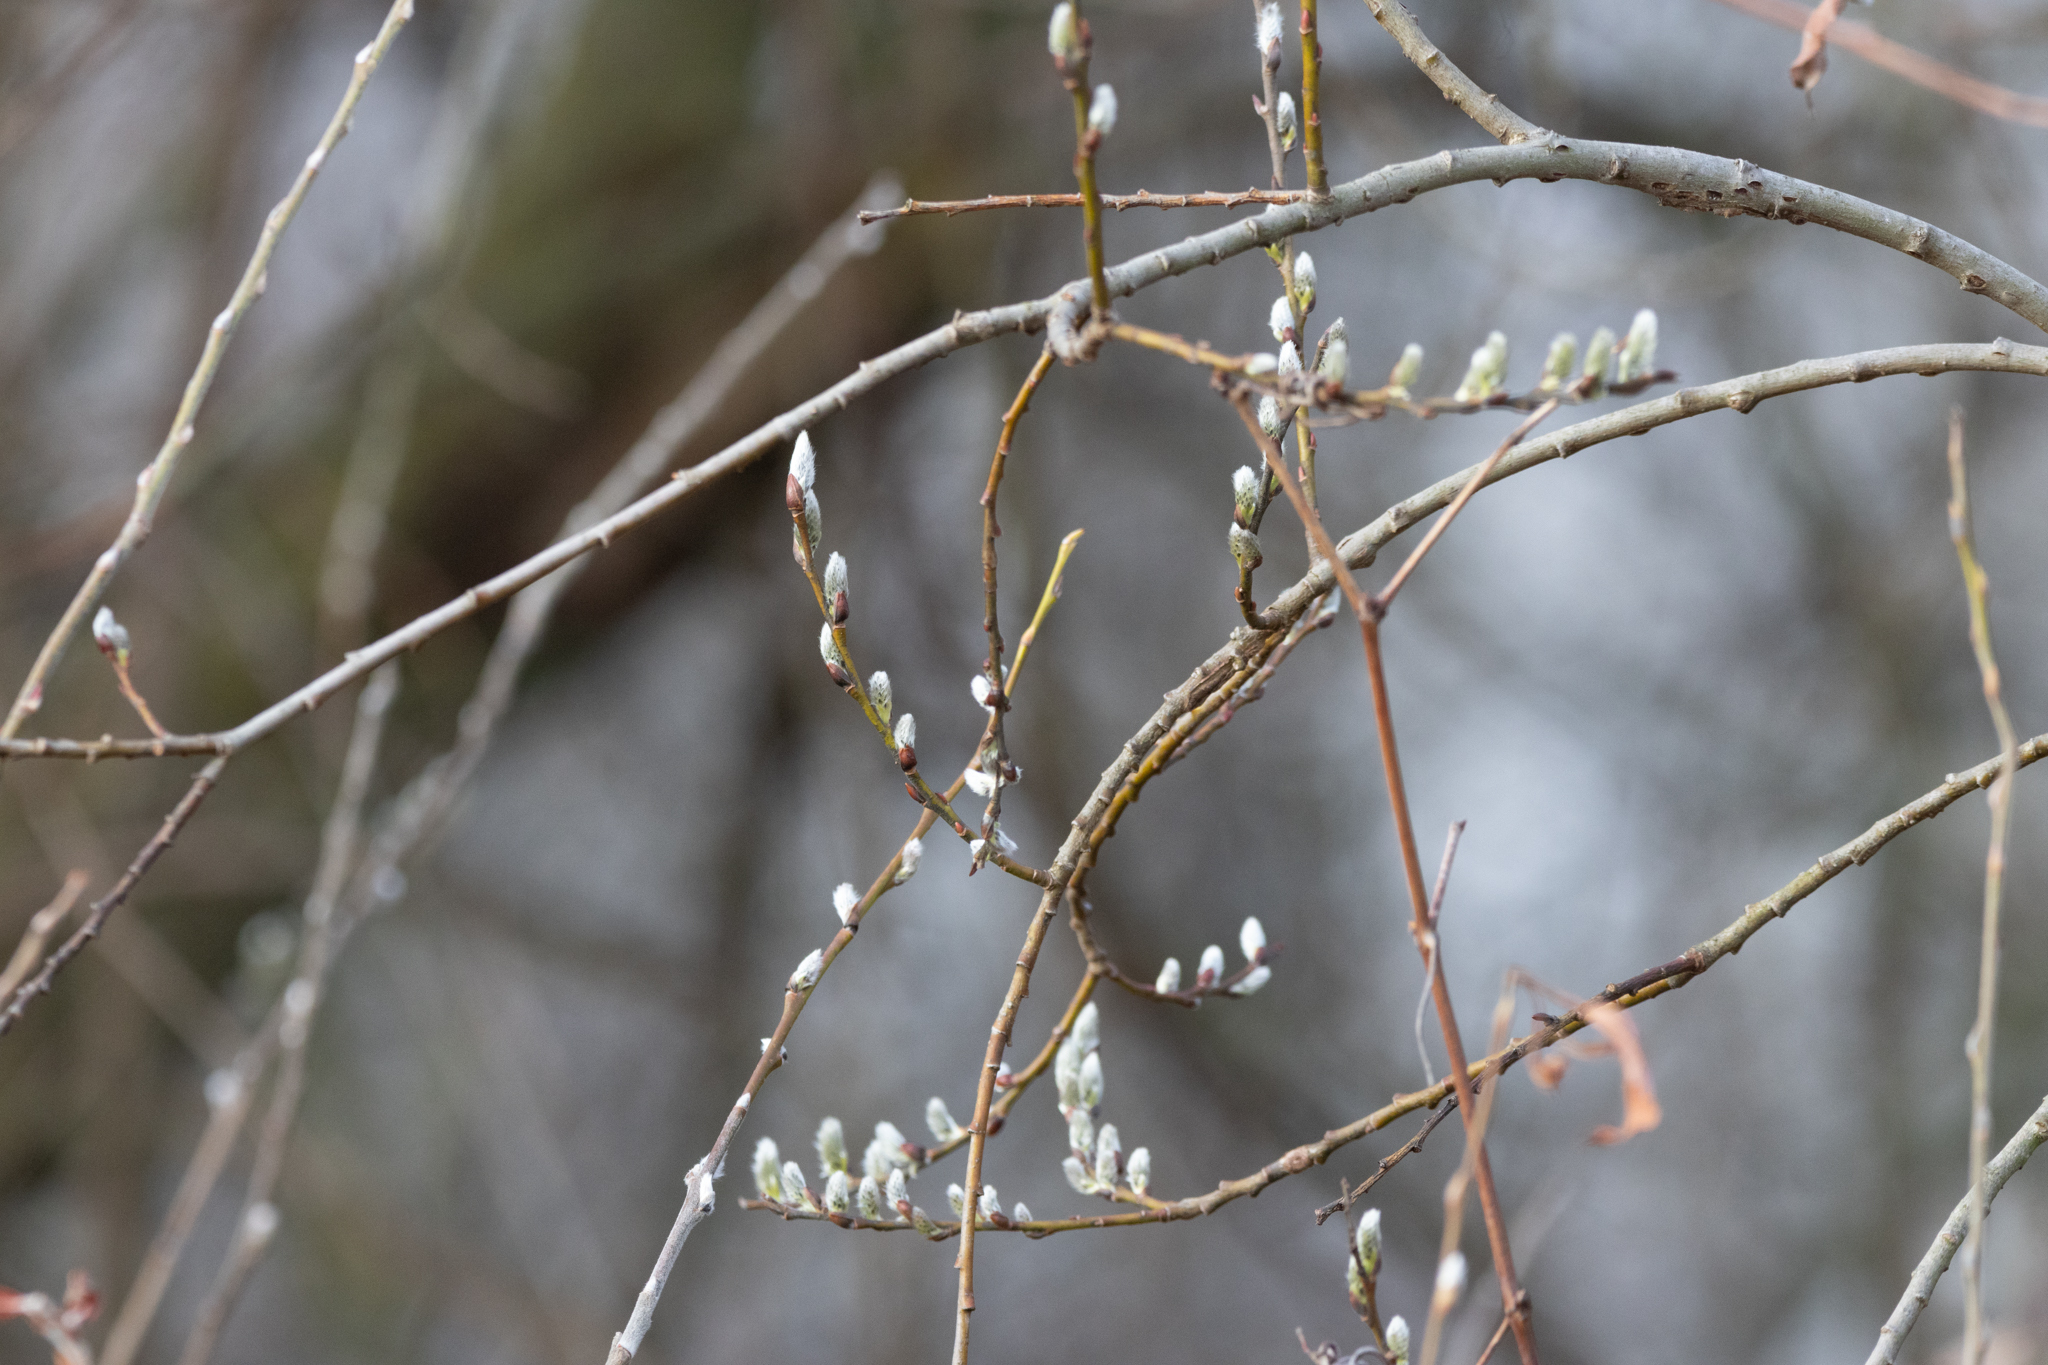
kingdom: Plantae
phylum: Tracheophyta
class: Magnoliopsida
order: Malpighiales
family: Salicaceae
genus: Salix
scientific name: Salix discolor
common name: Glaucous willow
